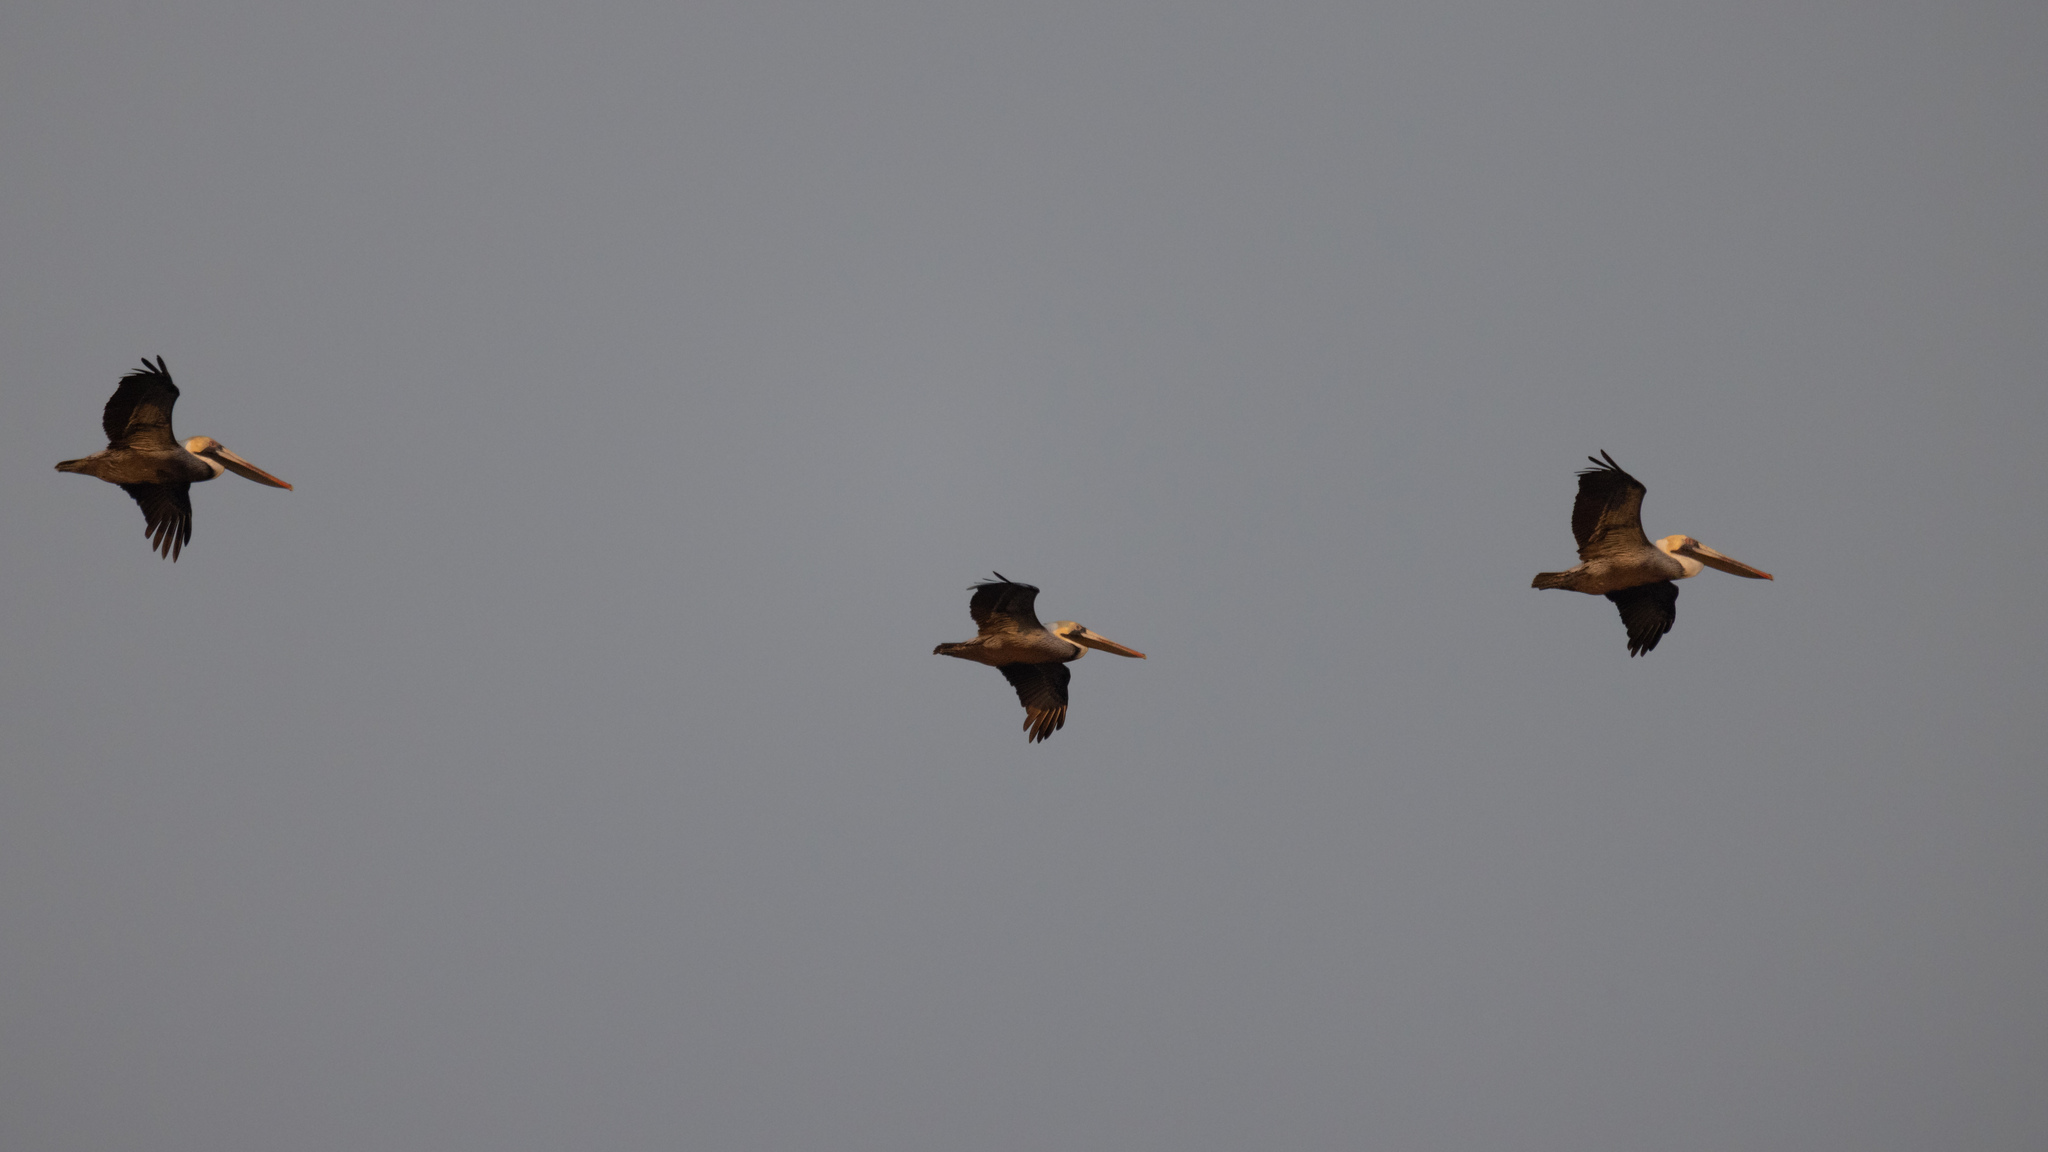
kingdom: Animalia
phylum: Chordata
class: Aves
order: Pelecaniformes
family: Pelecanidae
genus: Pelecanus
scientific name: Pelecanus occidentalis
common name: Brown pelican
